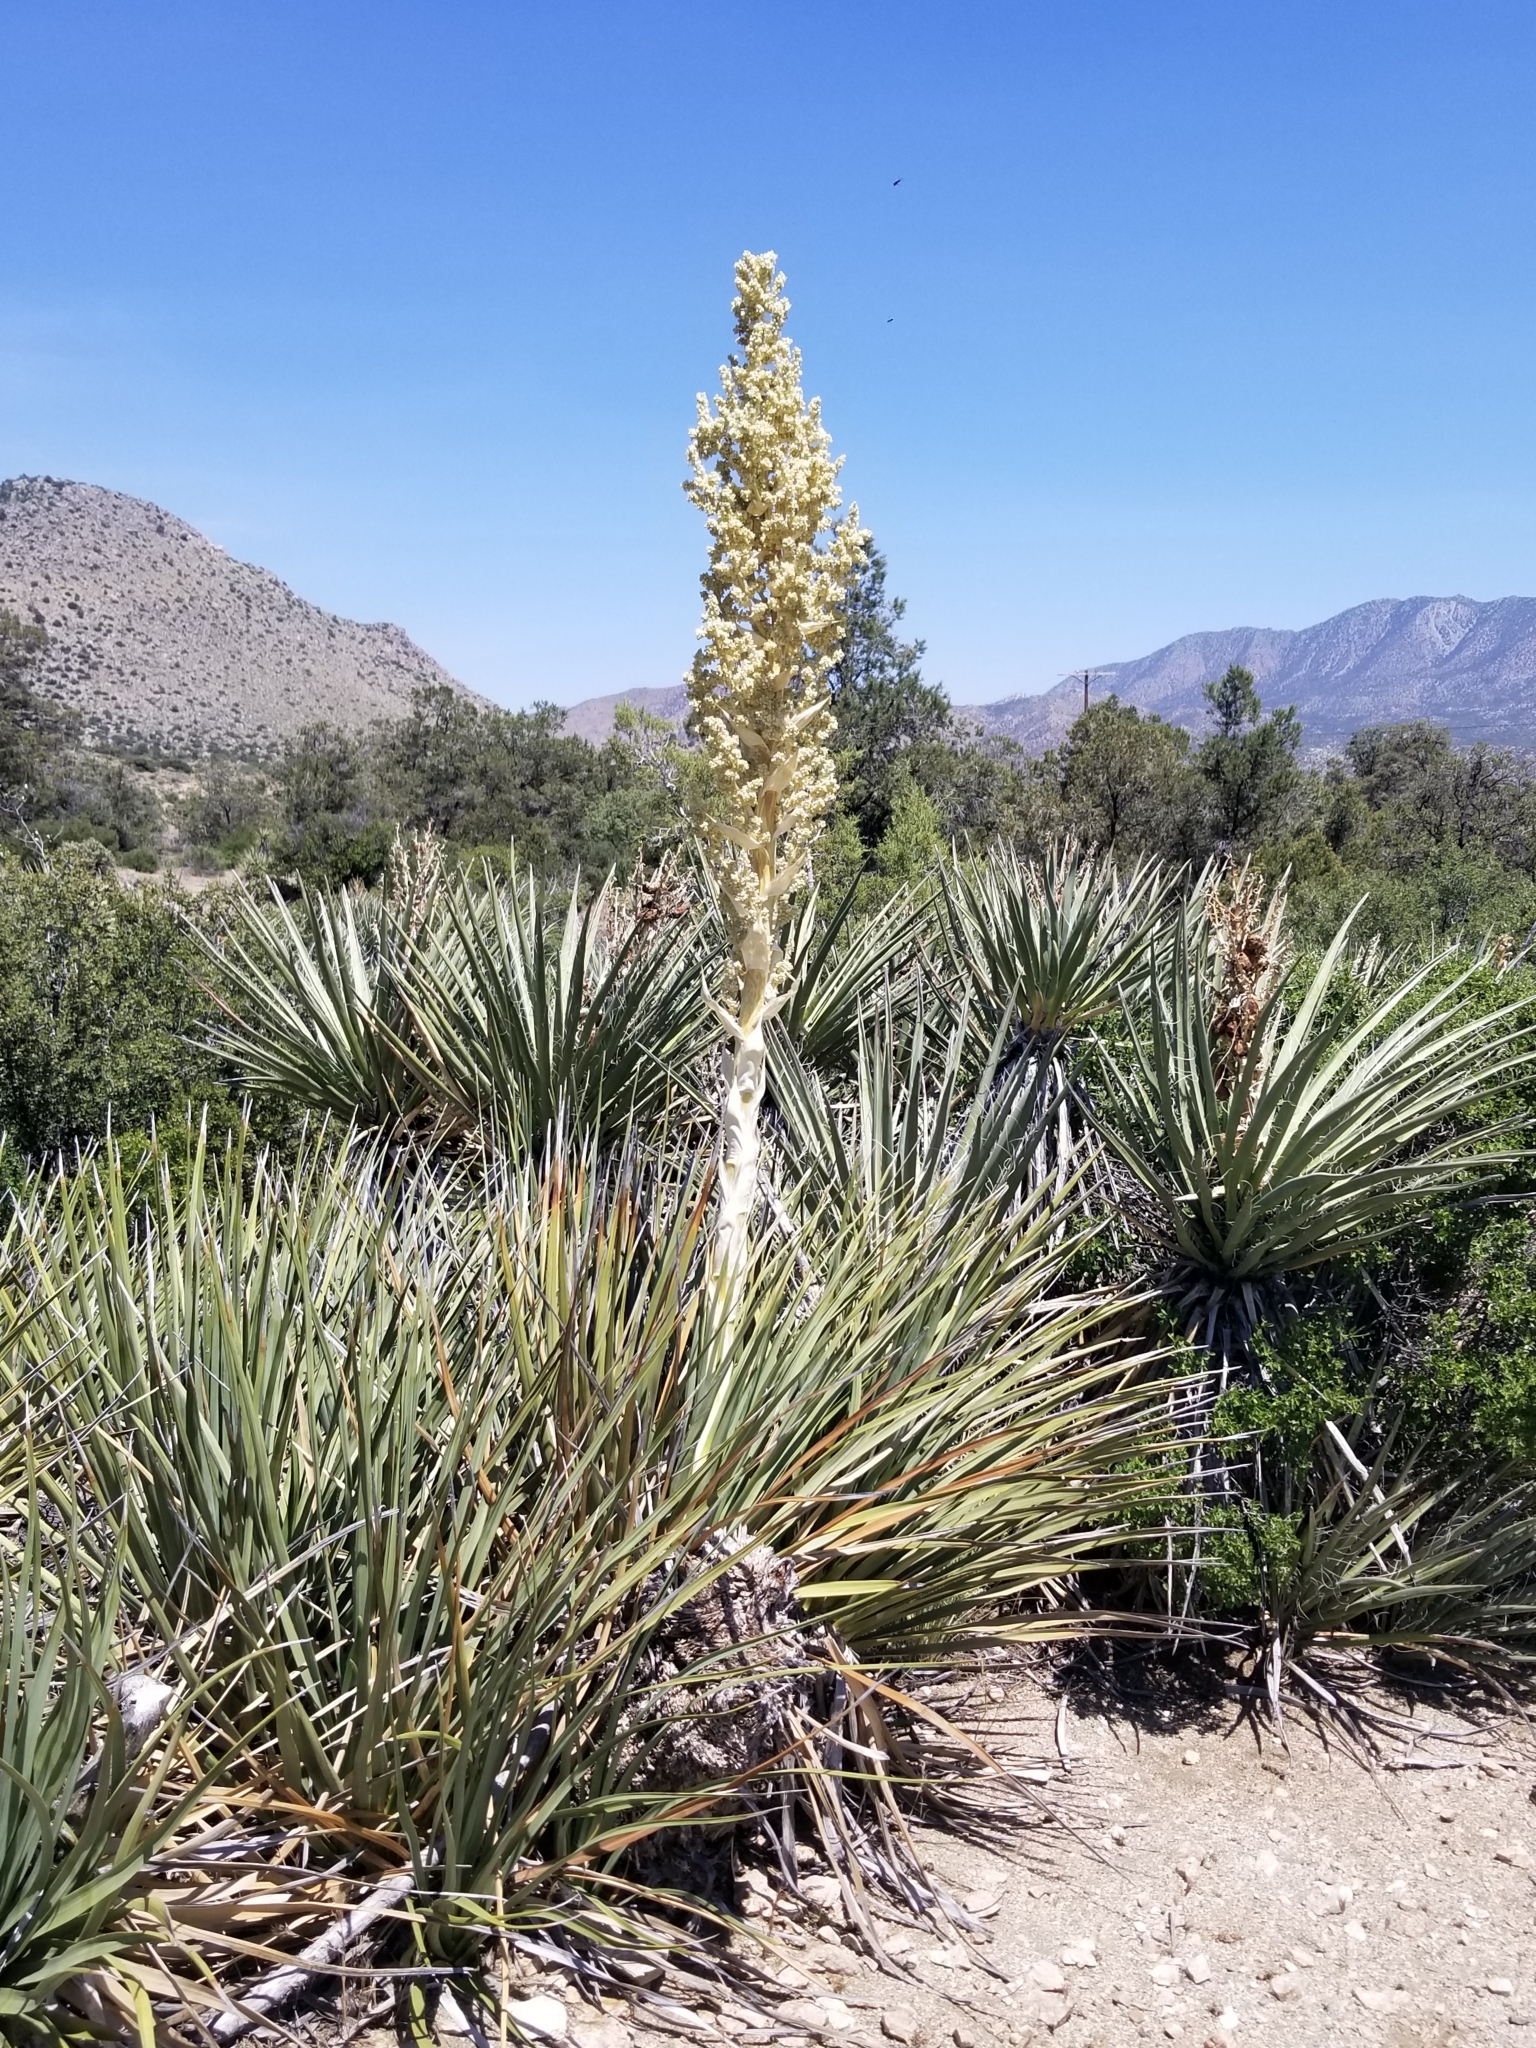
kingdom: Plantae
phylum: Tracheophyta
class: Liliopsida
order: Asparagales
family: Asparagaceae
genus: Nolina
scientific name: Nolina parryi
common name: Parry nolina
